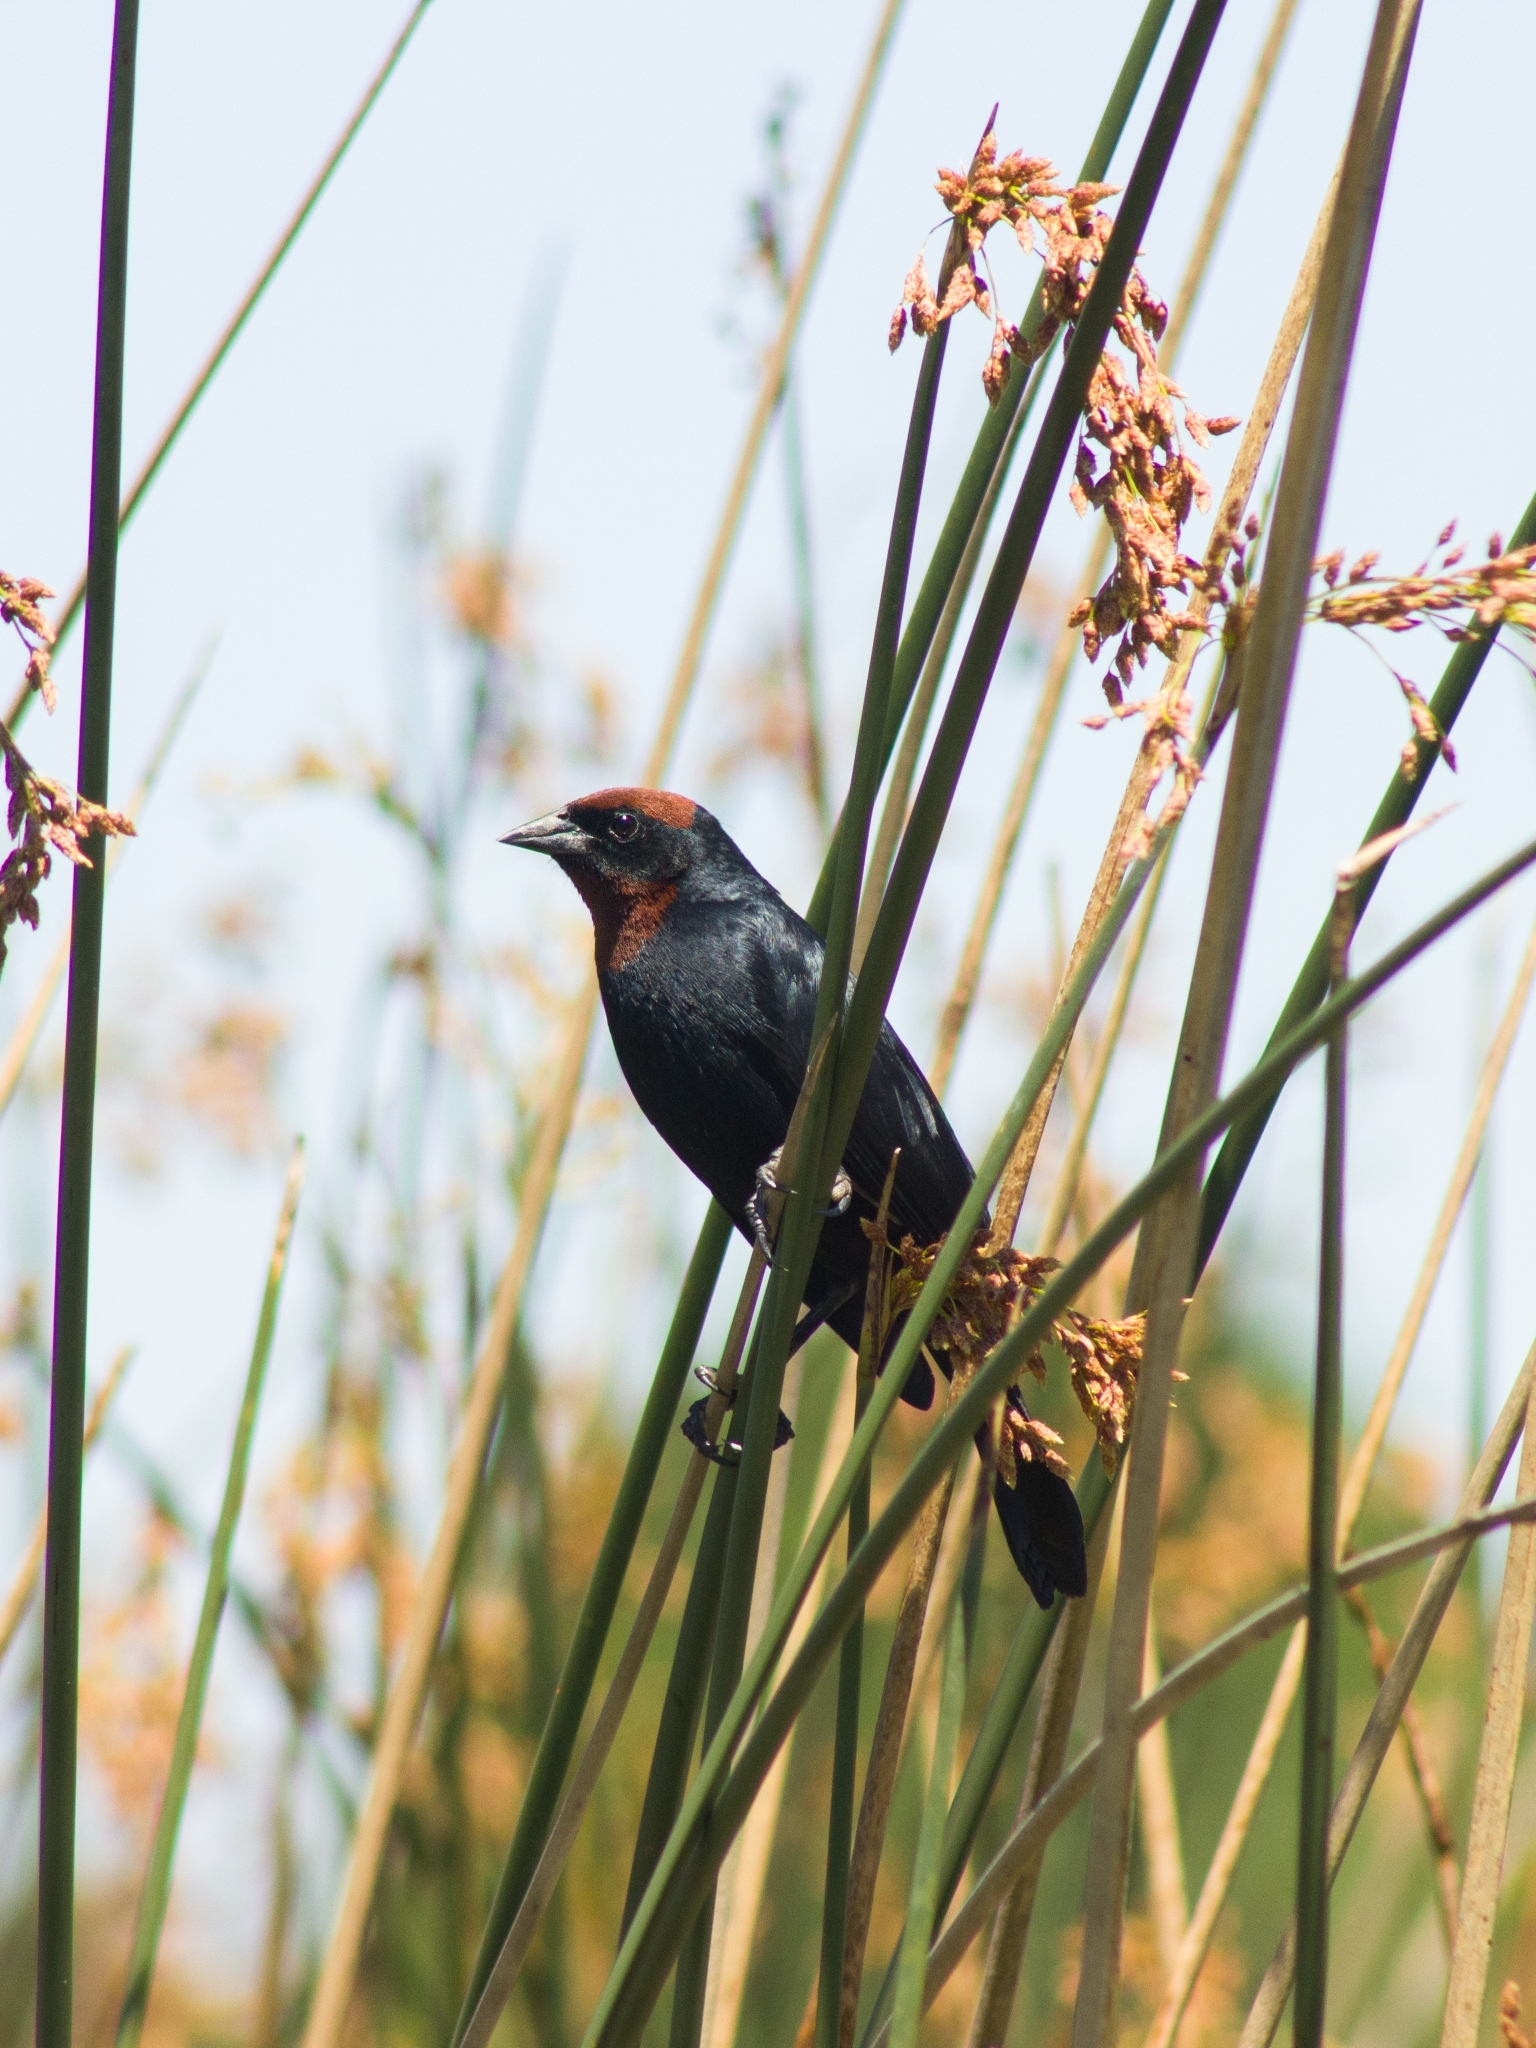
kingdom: Animalia
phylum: Chordata
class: Aves
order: Passeriformes
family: Icteridae
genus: Chrysomus
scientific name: Chrysomus ruficapillus
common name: Chestnut-capped blackbird
